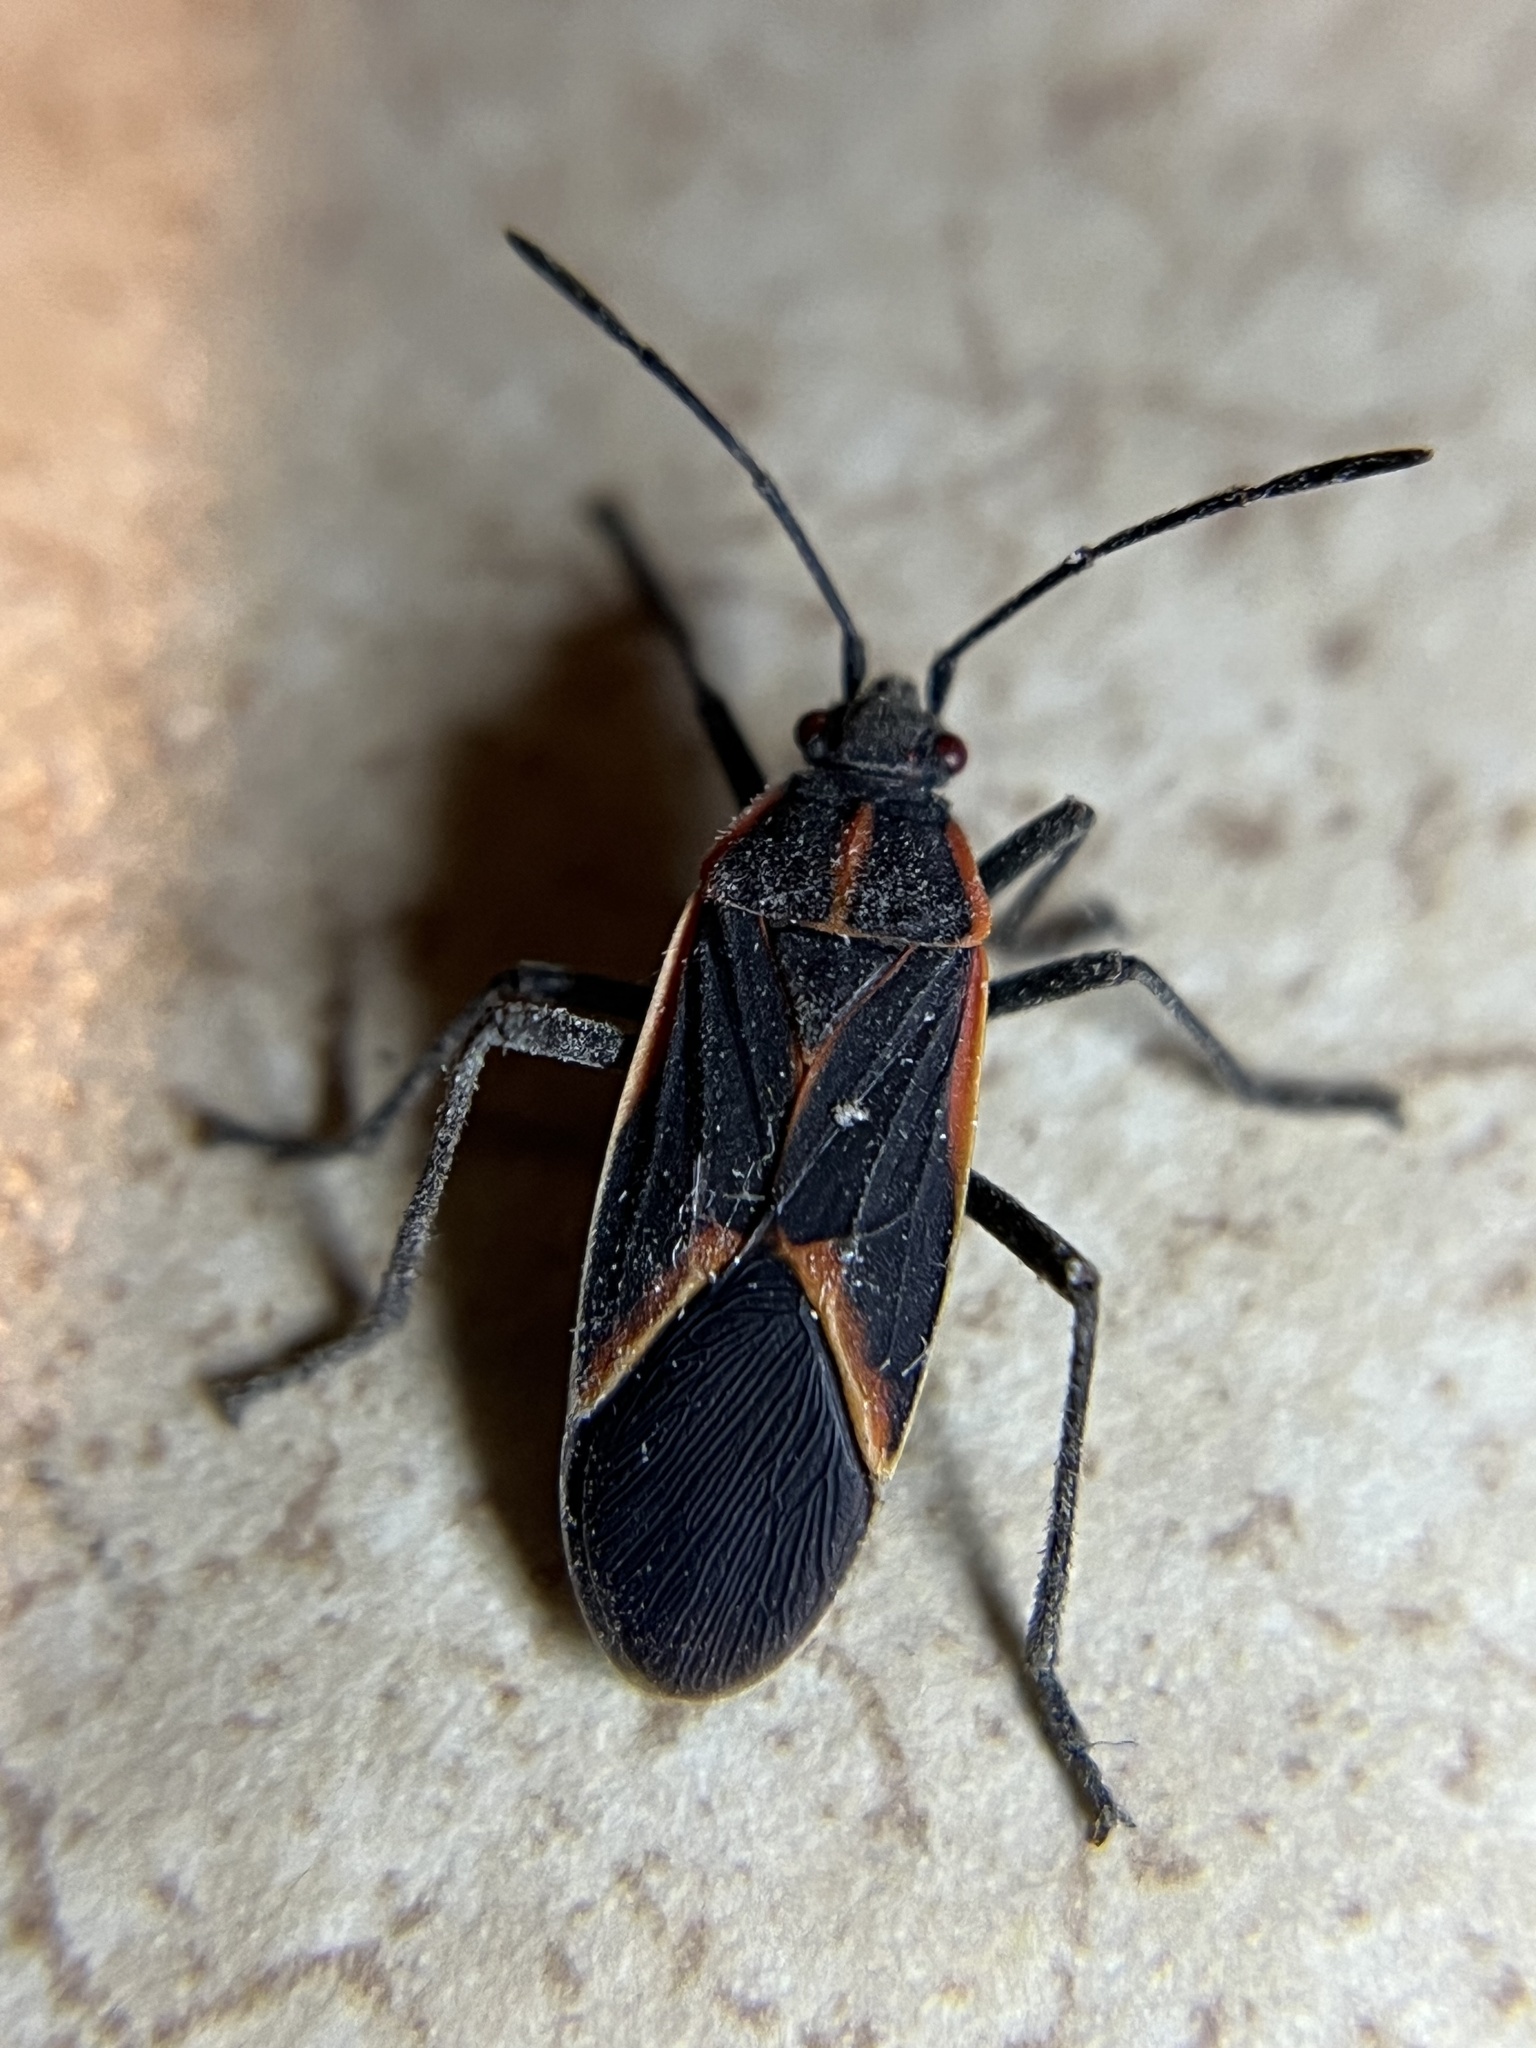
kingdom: Animalia
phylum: Arthropoda
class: Insecta
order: Hemiptera
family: Rhopalidae
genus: Boisea
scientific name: Boisea trivittata
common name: Boxelder bug
